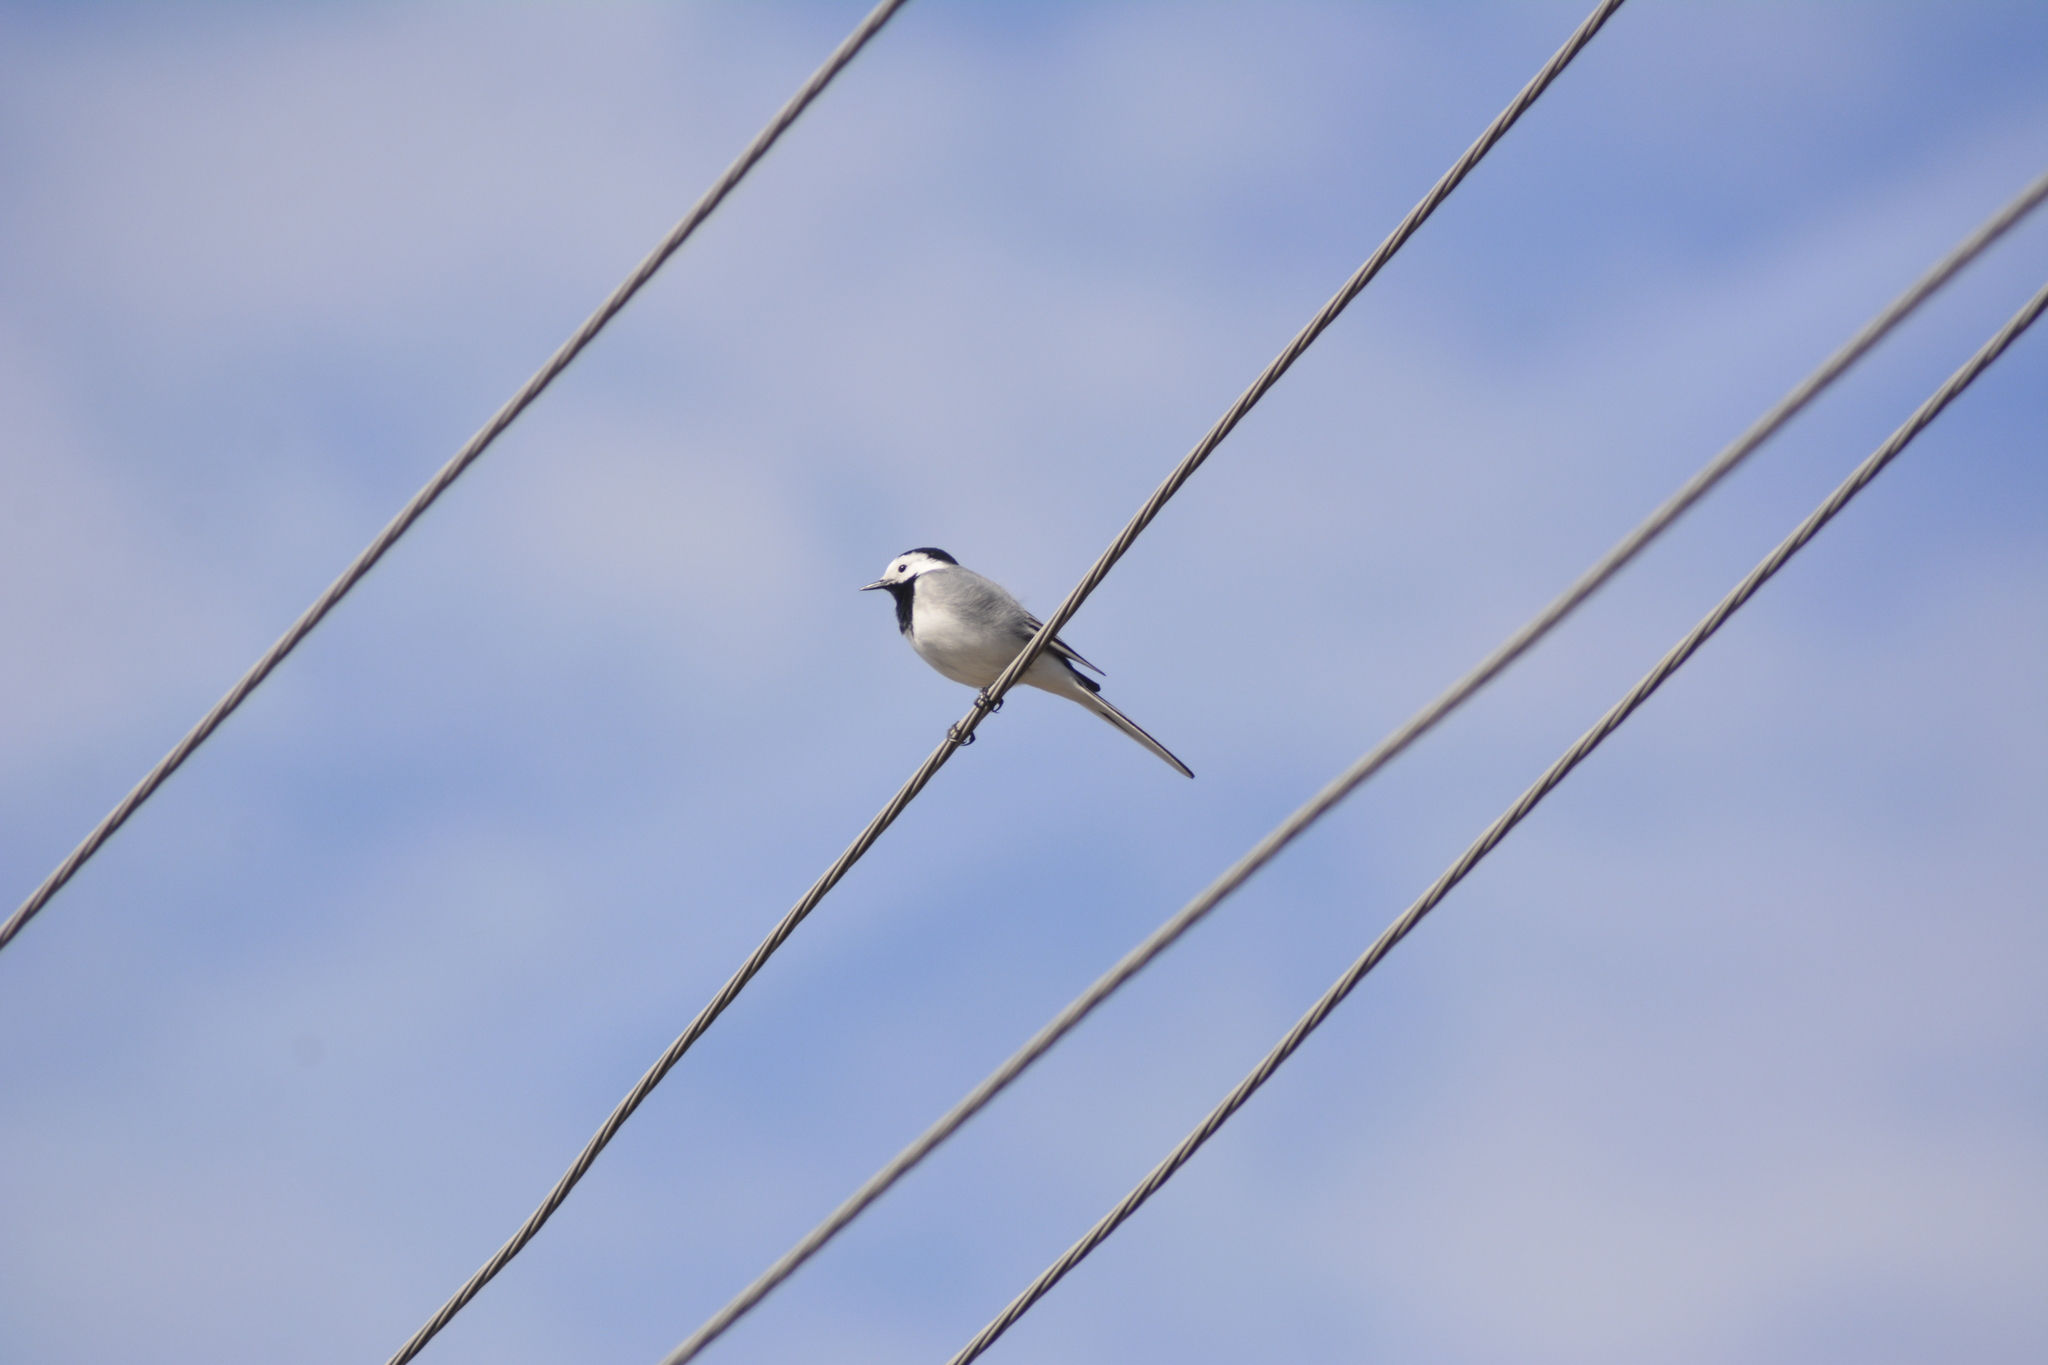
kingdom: Animalia
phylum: Chordata
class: Aves
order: Passeriformes
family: Motacillidae
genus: Motacilla
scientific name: Motacilla alba
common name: White wagtail
